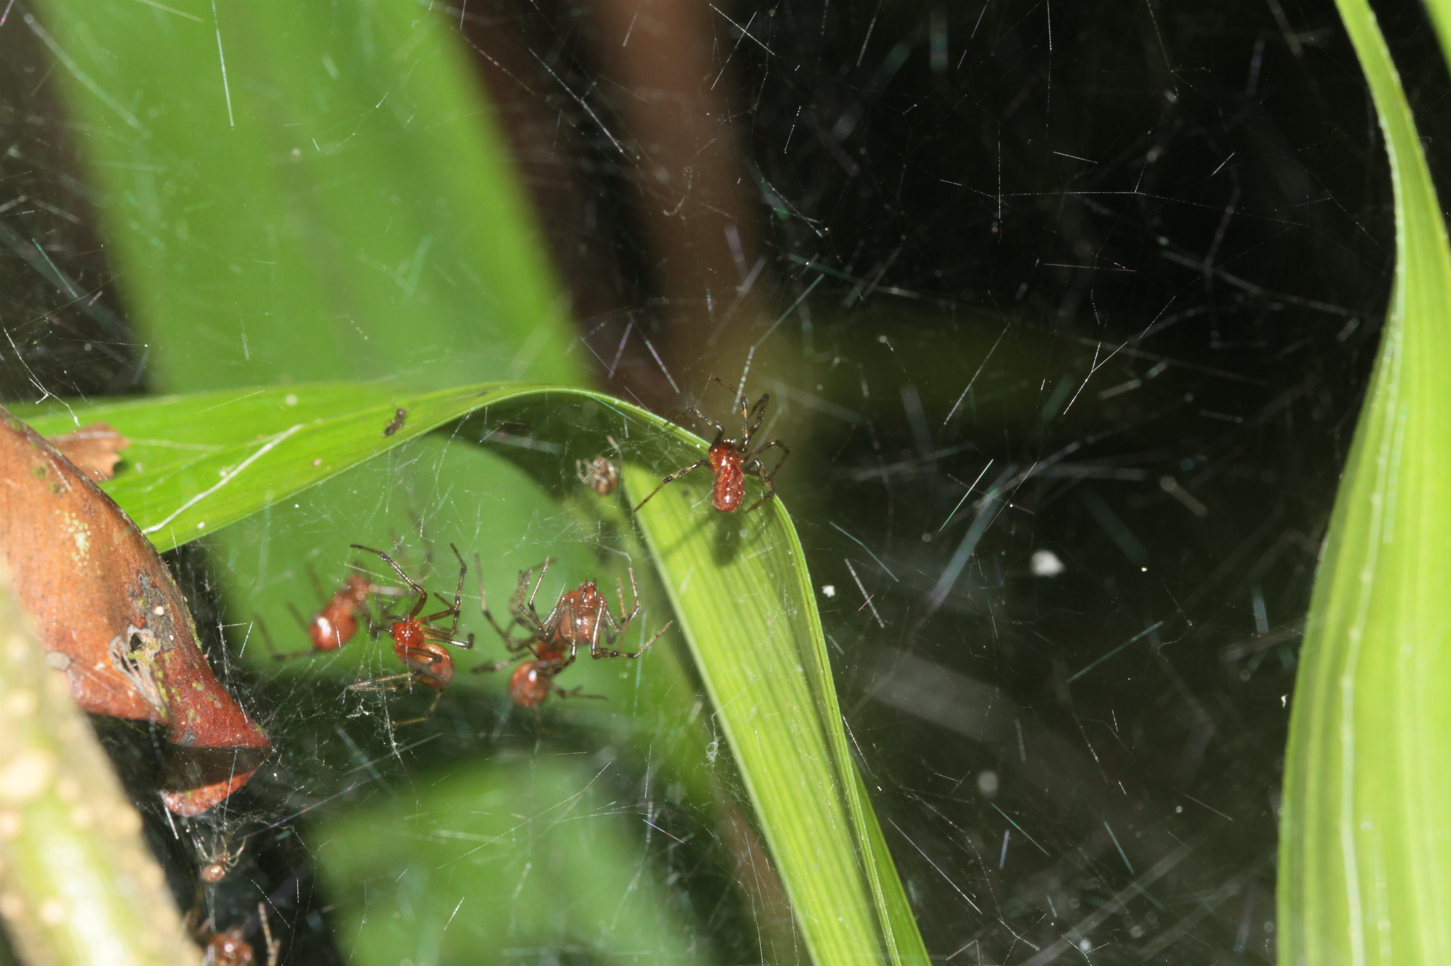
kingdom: Animalia
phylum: Arthropoda
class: Arachnida
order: Araneae
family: Theridiidae
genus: Anelosimus
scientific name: Anelosimus eximius
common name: Cobweb spiders
